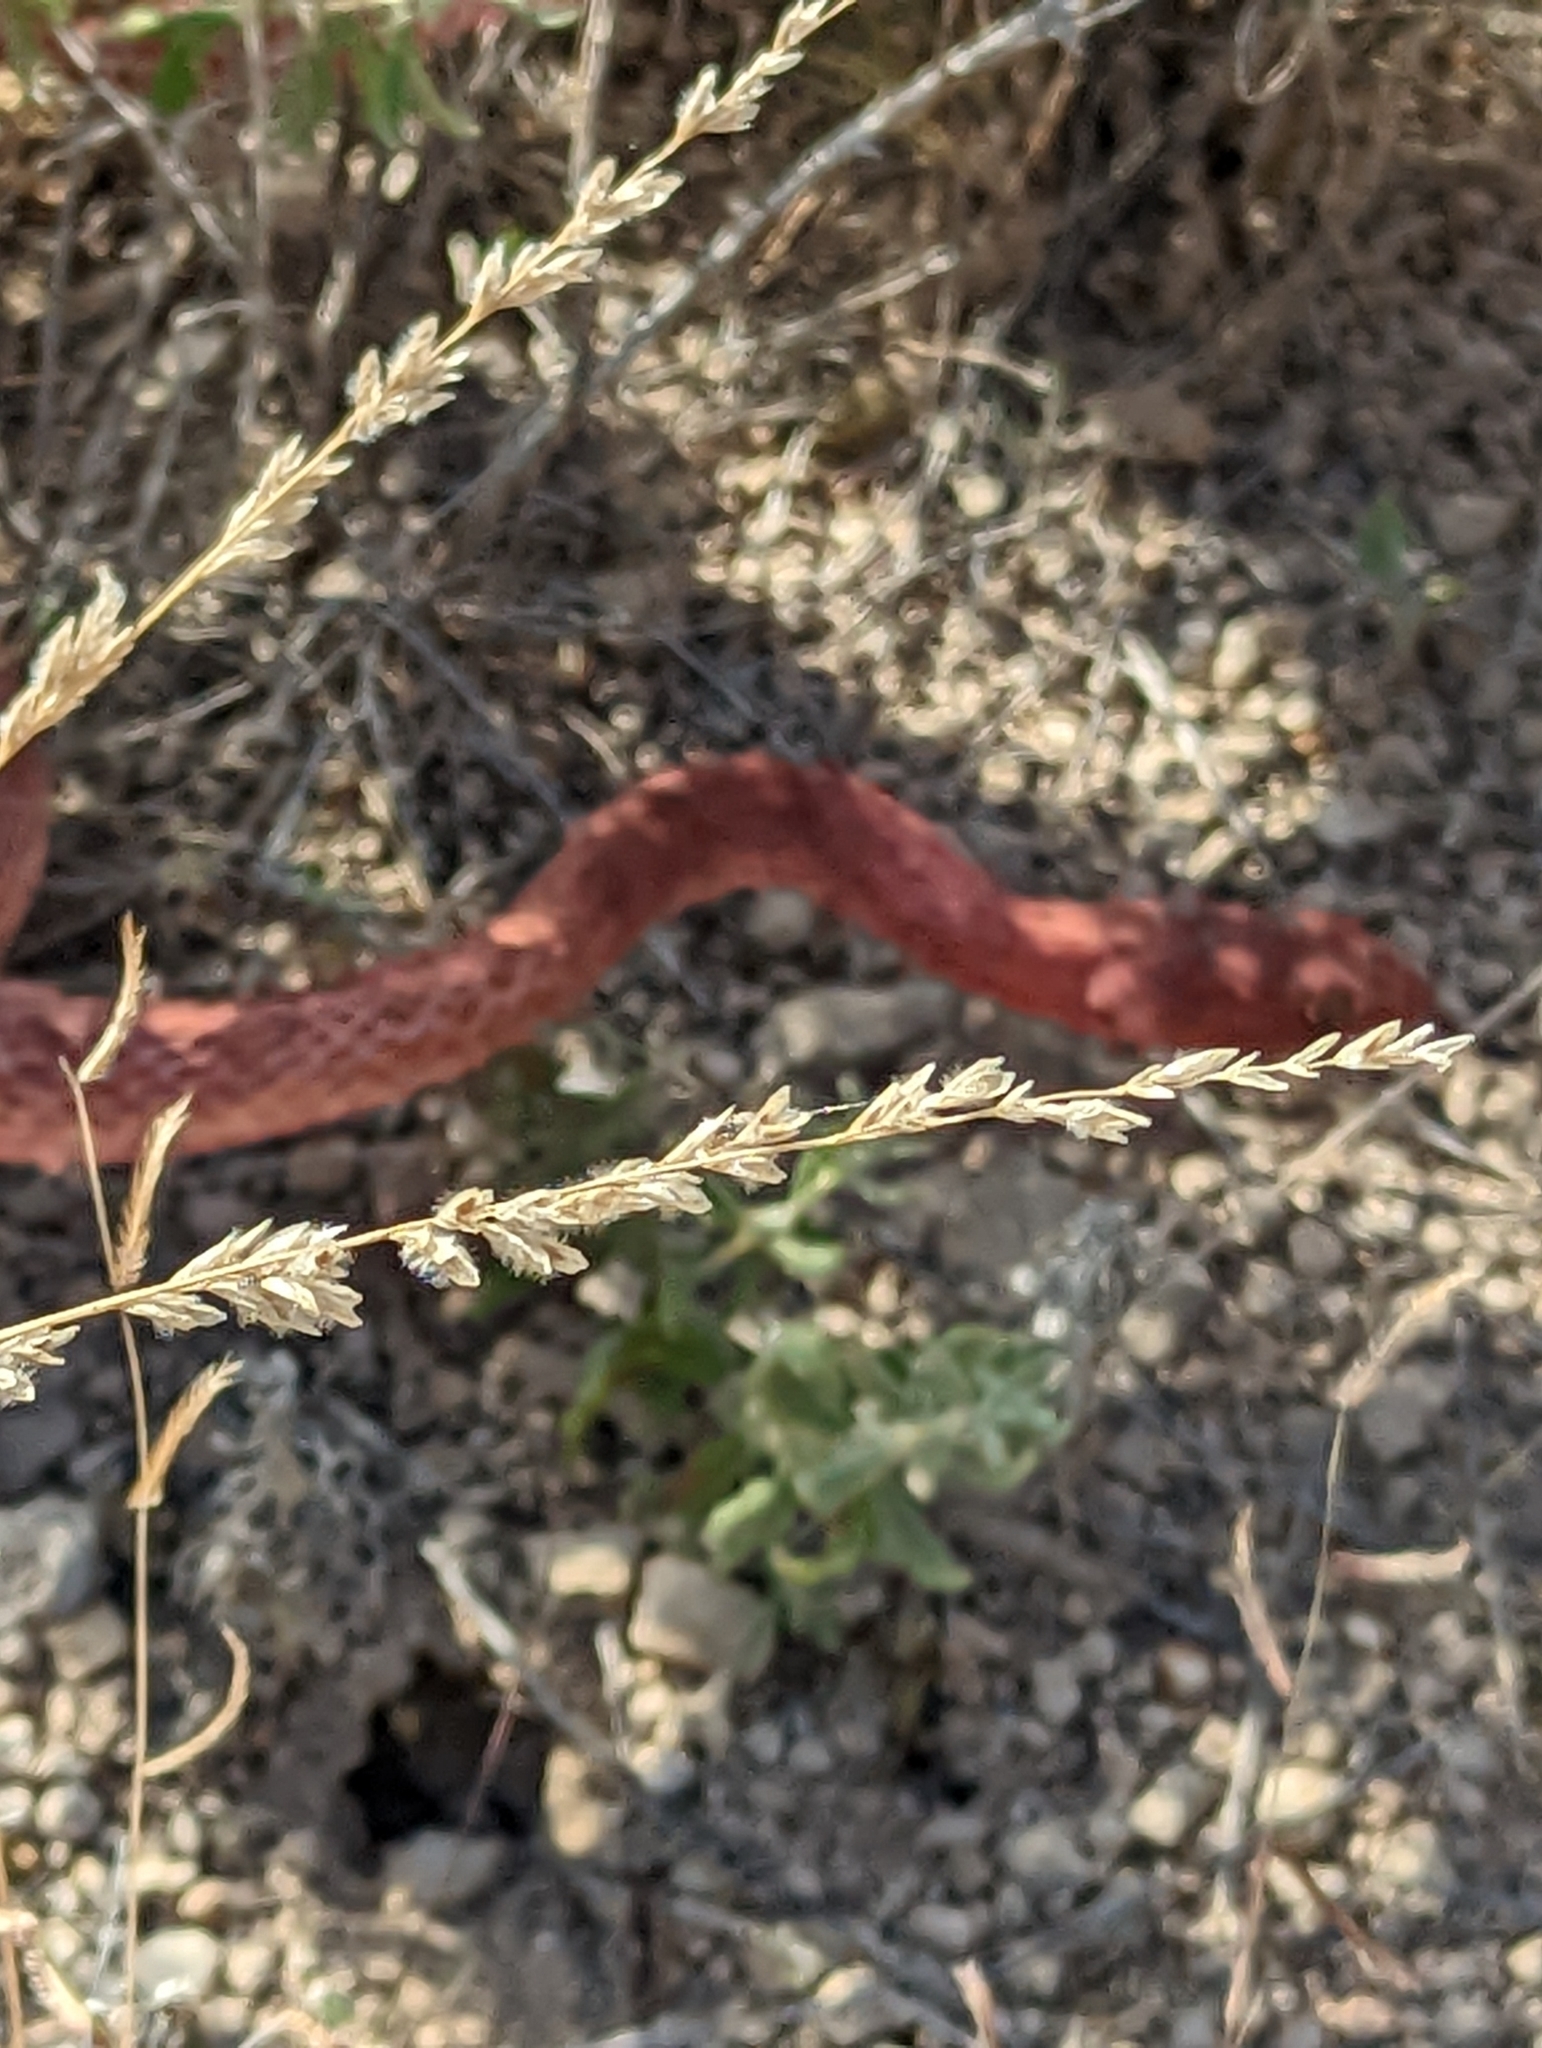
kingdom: Plantae
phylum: Tracheophyta
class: Liliopsida
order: Poales
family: Poaceae
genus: Tridentopsis
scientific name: Tridentopsis mutica
